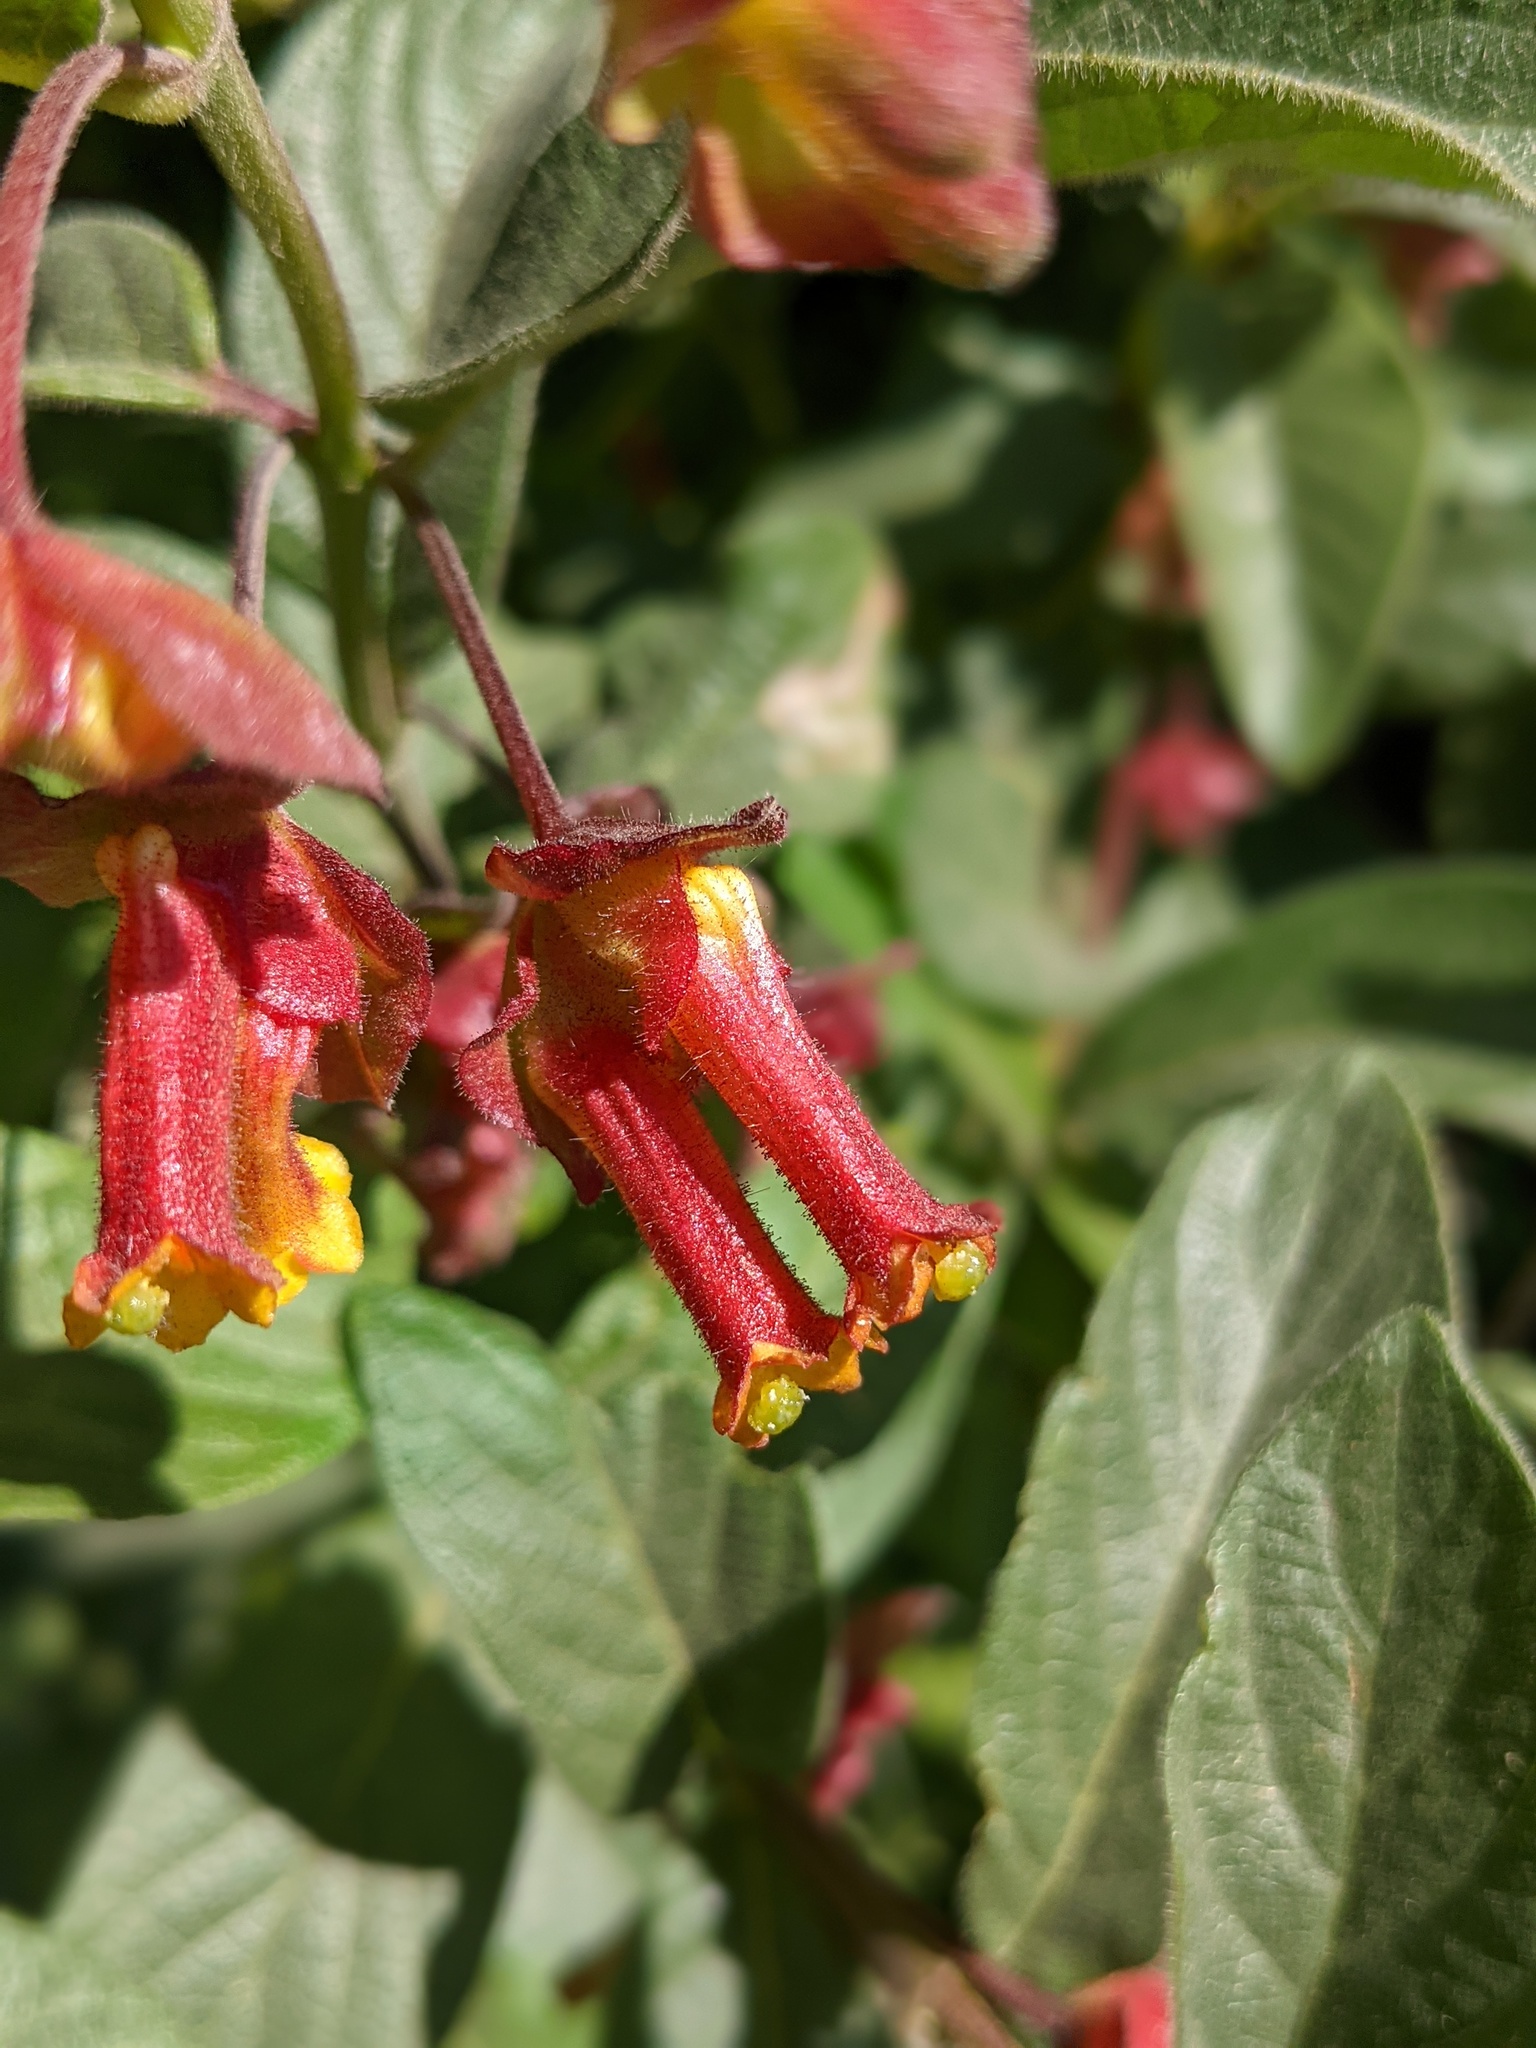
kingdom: Plantae
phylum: Tracheophyta
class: Magnoliopsida
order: Dipsacales
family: Caprifoliaceae
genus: Lonicera
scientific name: Lonicera involucrata
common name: Californian honeysuckle
